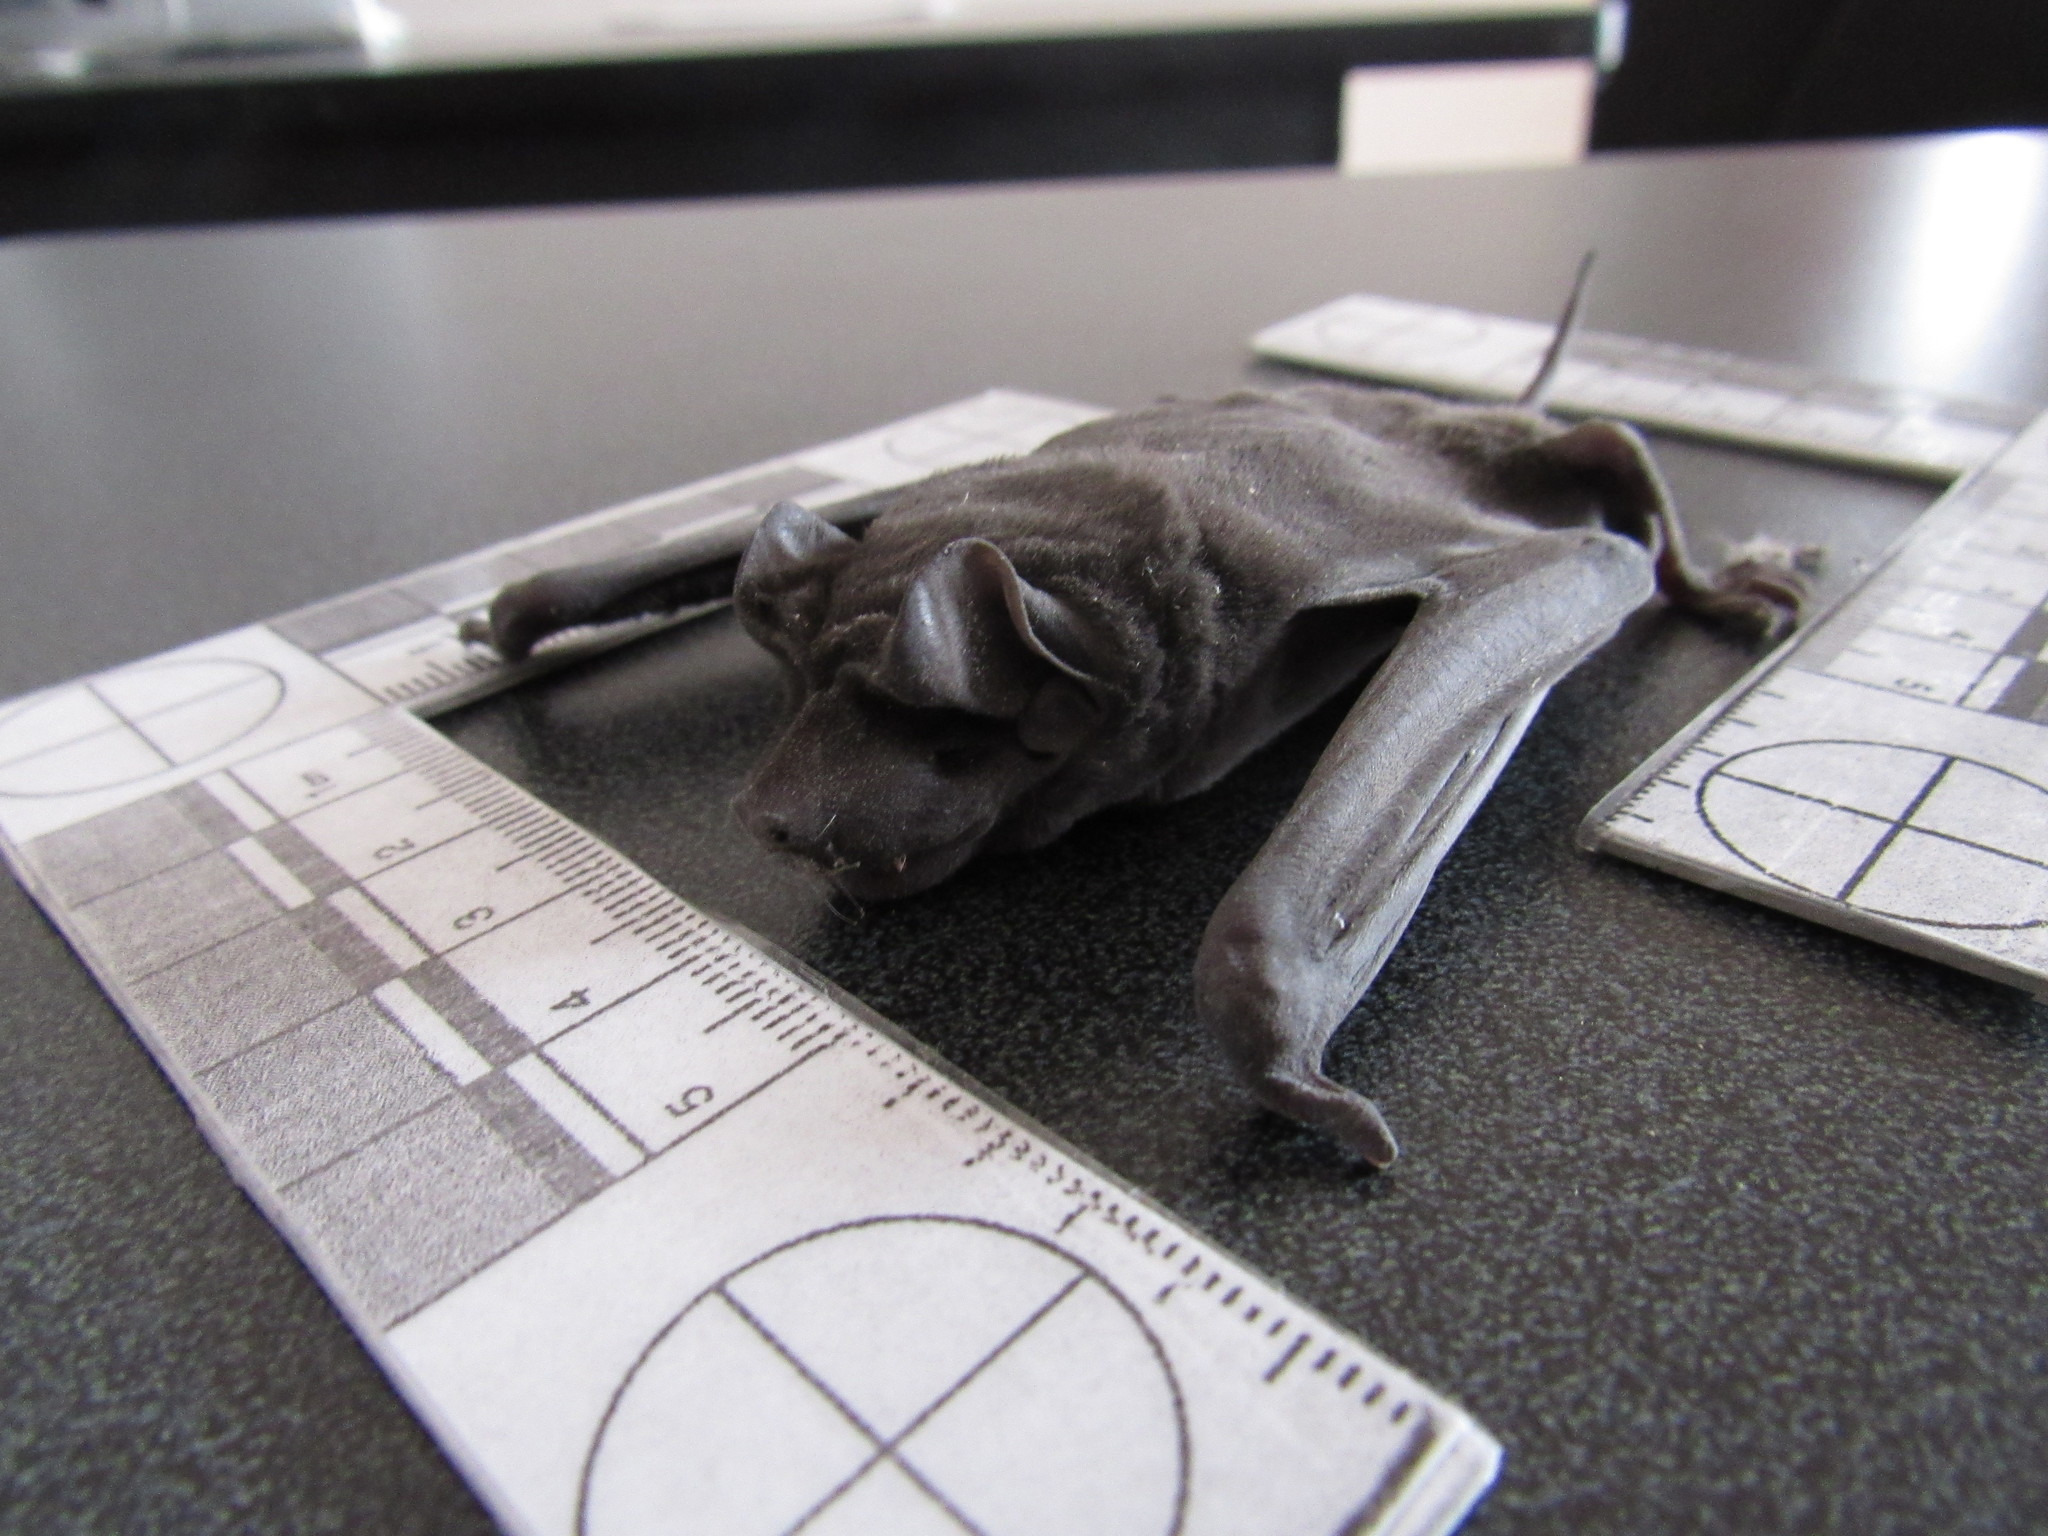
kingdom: Animalia
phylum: Chordata
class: Mammalia
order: Chiroptera
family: Molossidae
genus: Molossus
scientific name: Molossus
